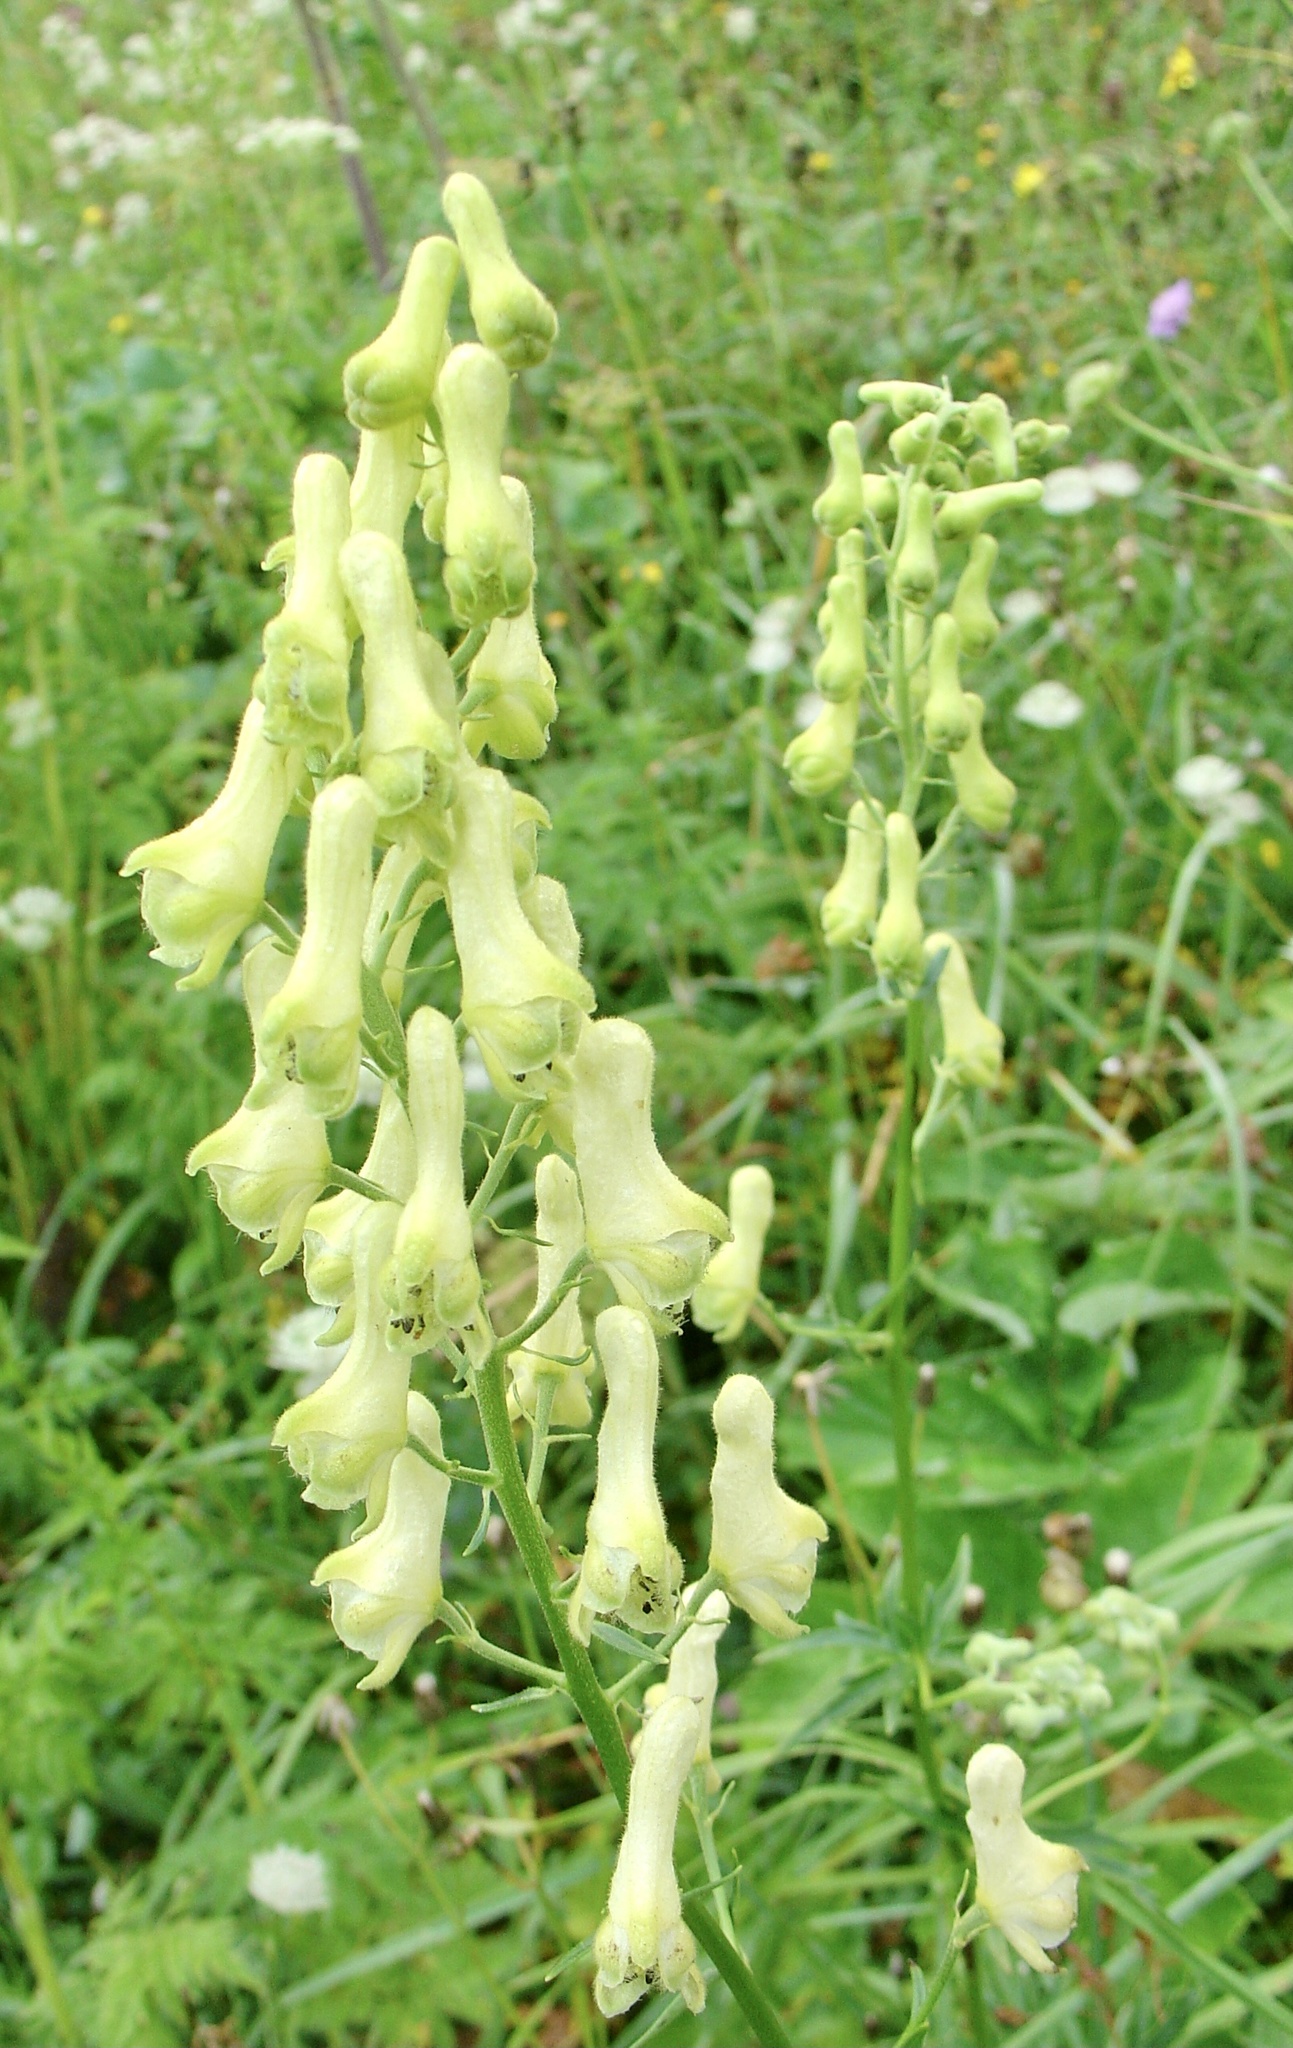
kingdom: Plantae
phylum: Tracheophyta
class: Magnoliopsida
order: Ranunculales
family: Ranunculaceae
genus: Aconitum
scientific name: Aconitum lycoctonum
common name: Wolf's-bane
